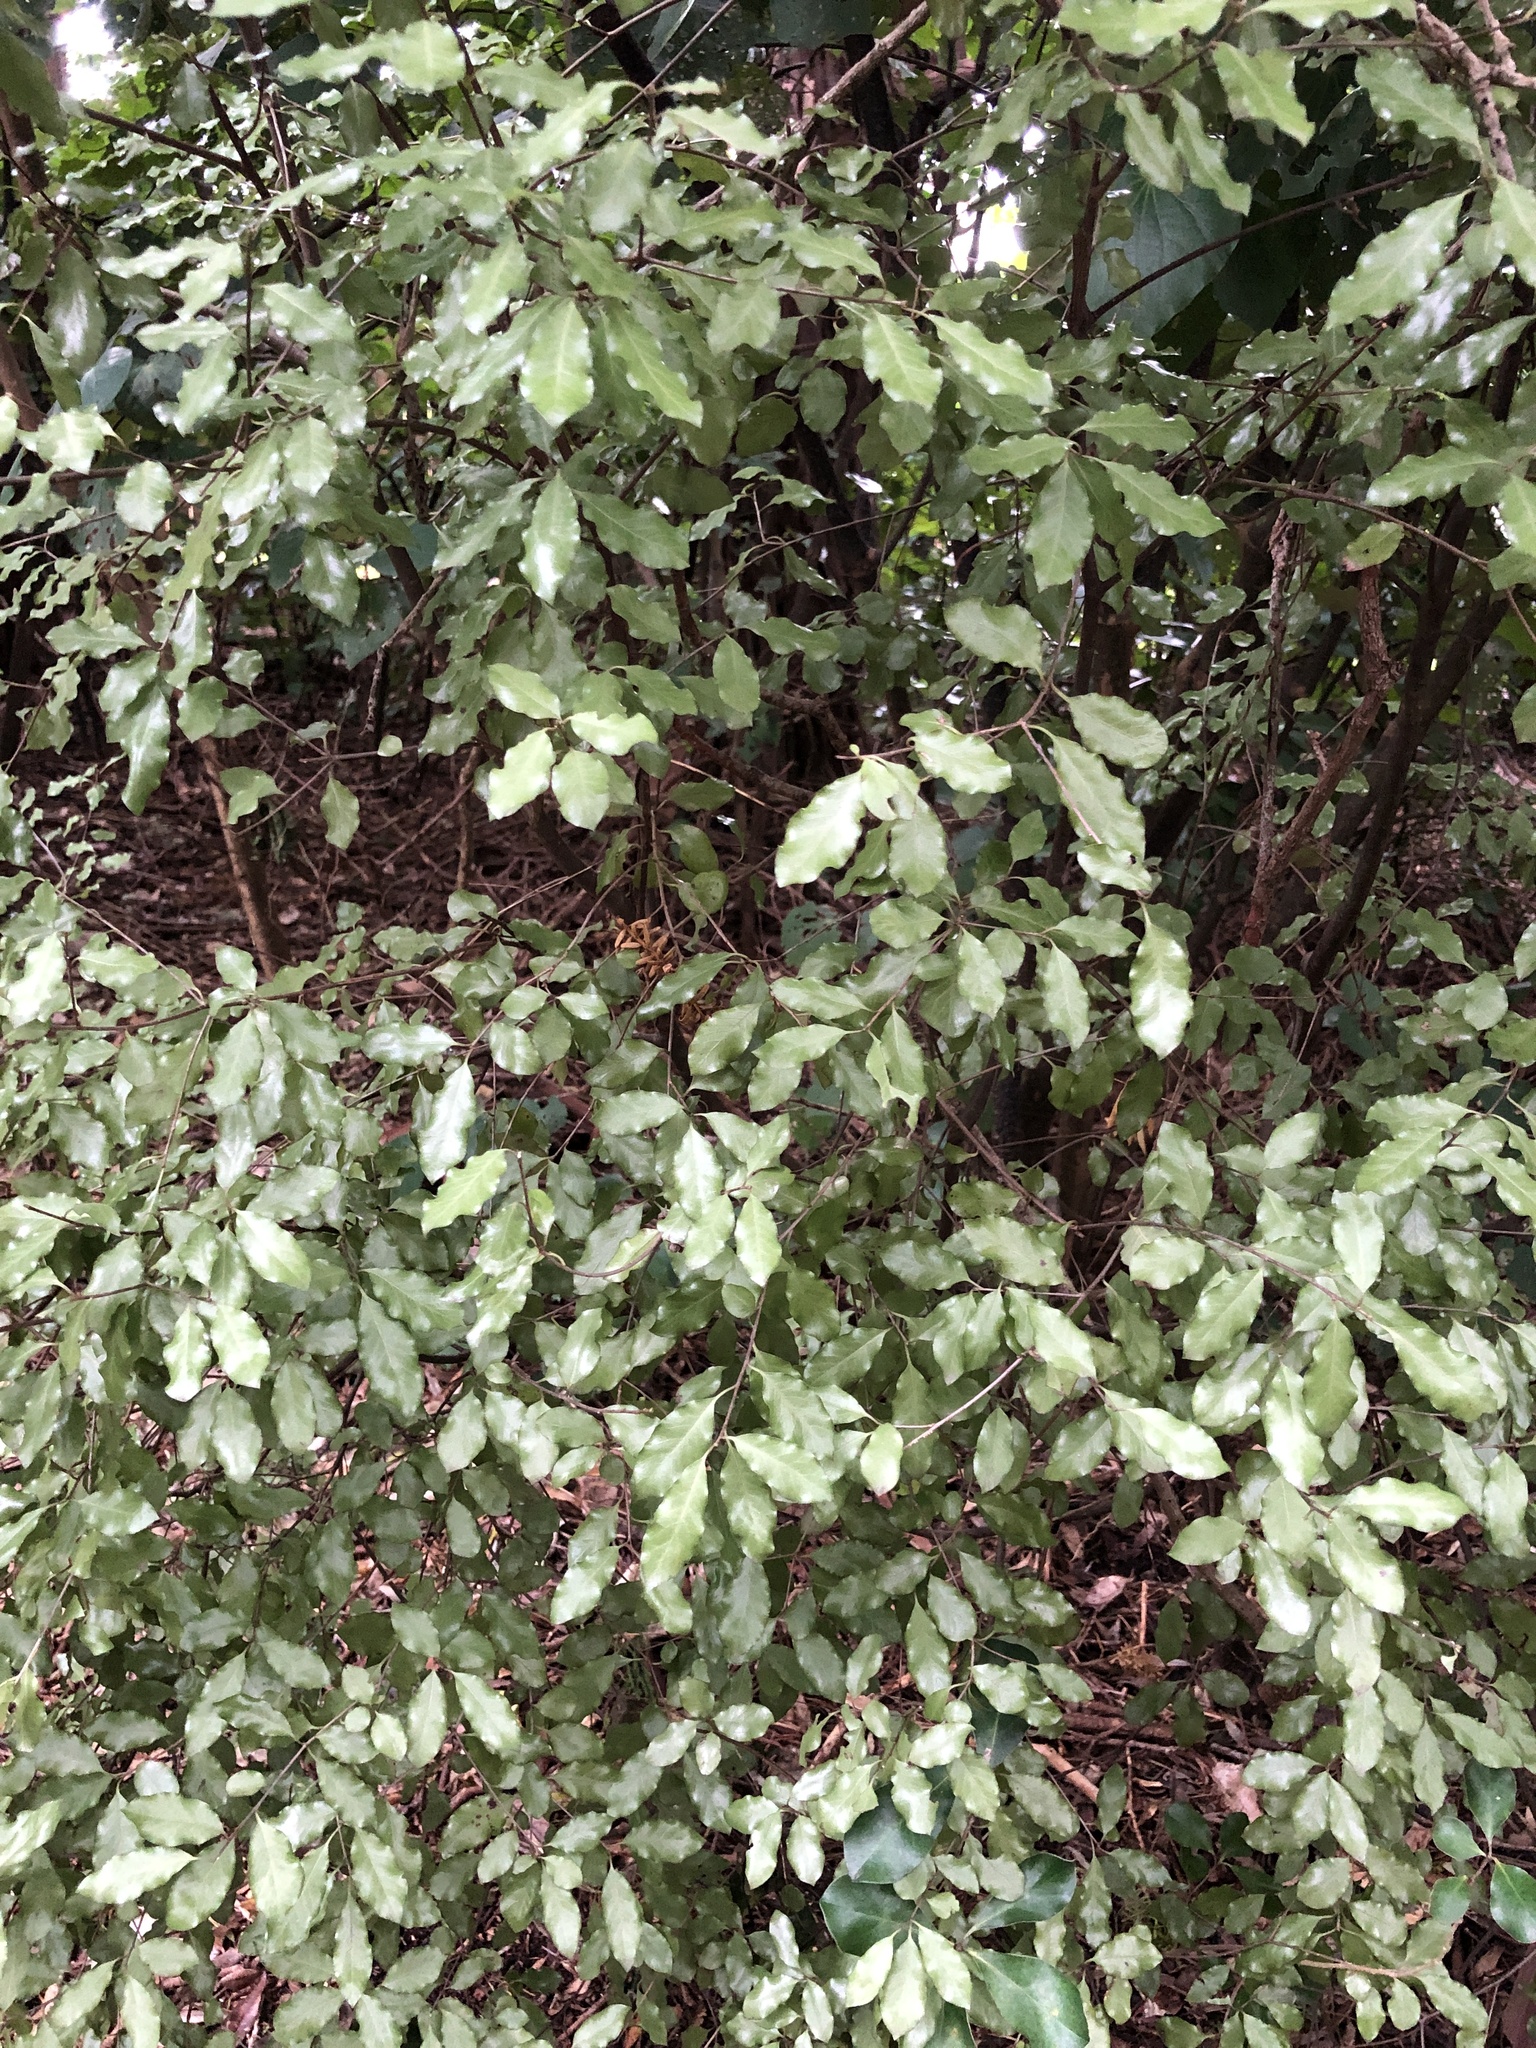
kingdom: Plantae
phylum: Tracheophyta
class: Magnoliopsida
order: Apiales
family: Pittosporaceae
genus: Pittosporum
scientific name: Pittosporum tenuifolium
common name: Kohuhu
